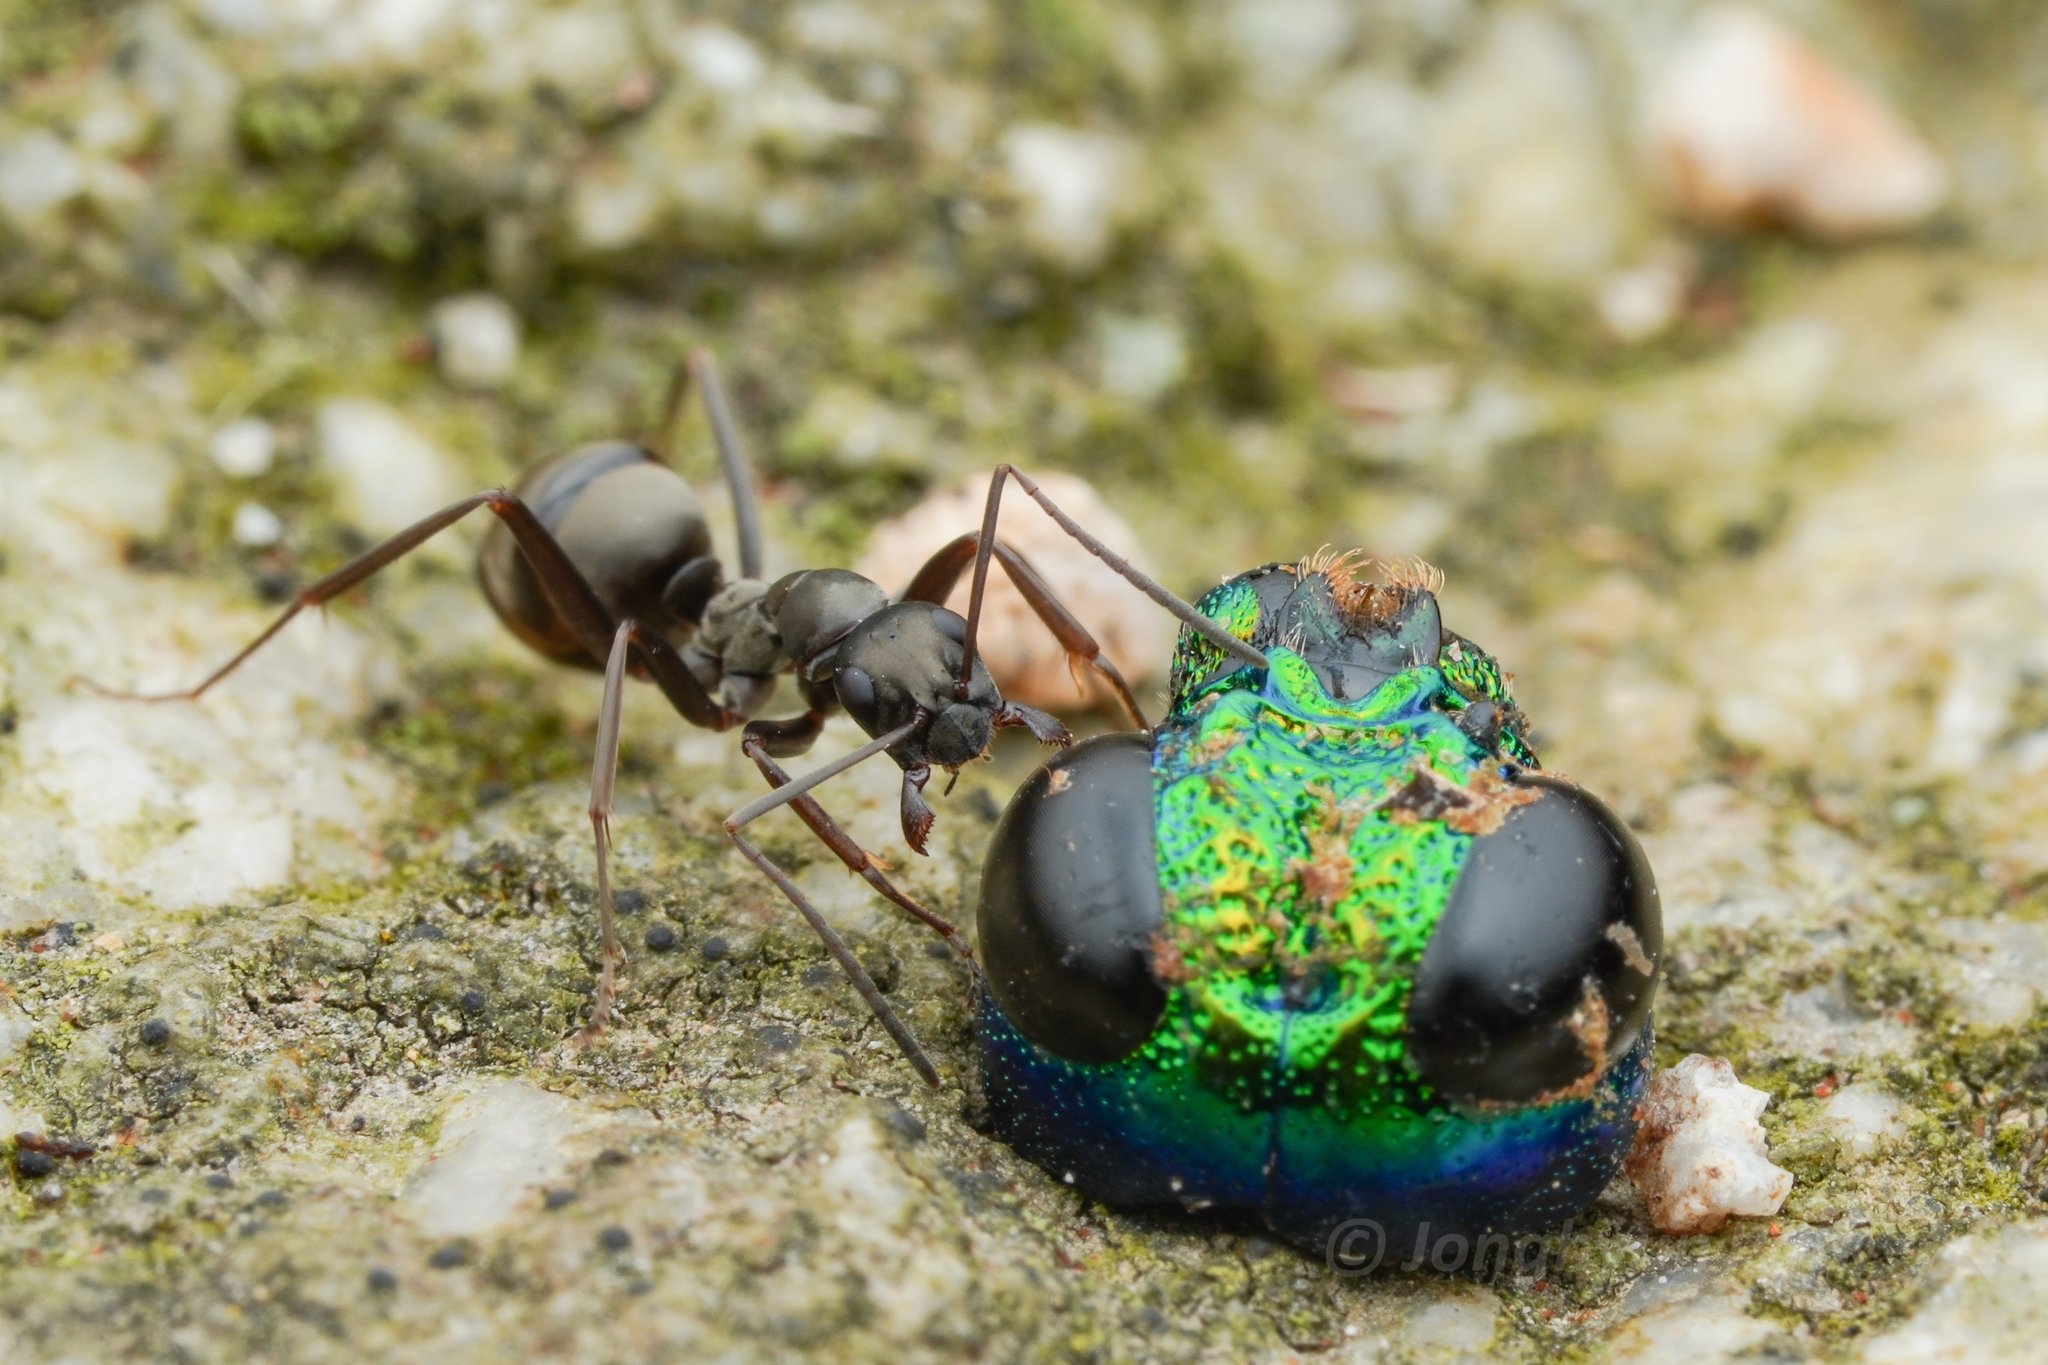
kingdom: Animalia
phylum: Arthropoda
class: Insecta
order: Hymenoptera
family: Formicidae
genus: Formica
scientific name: Formica hayashi
